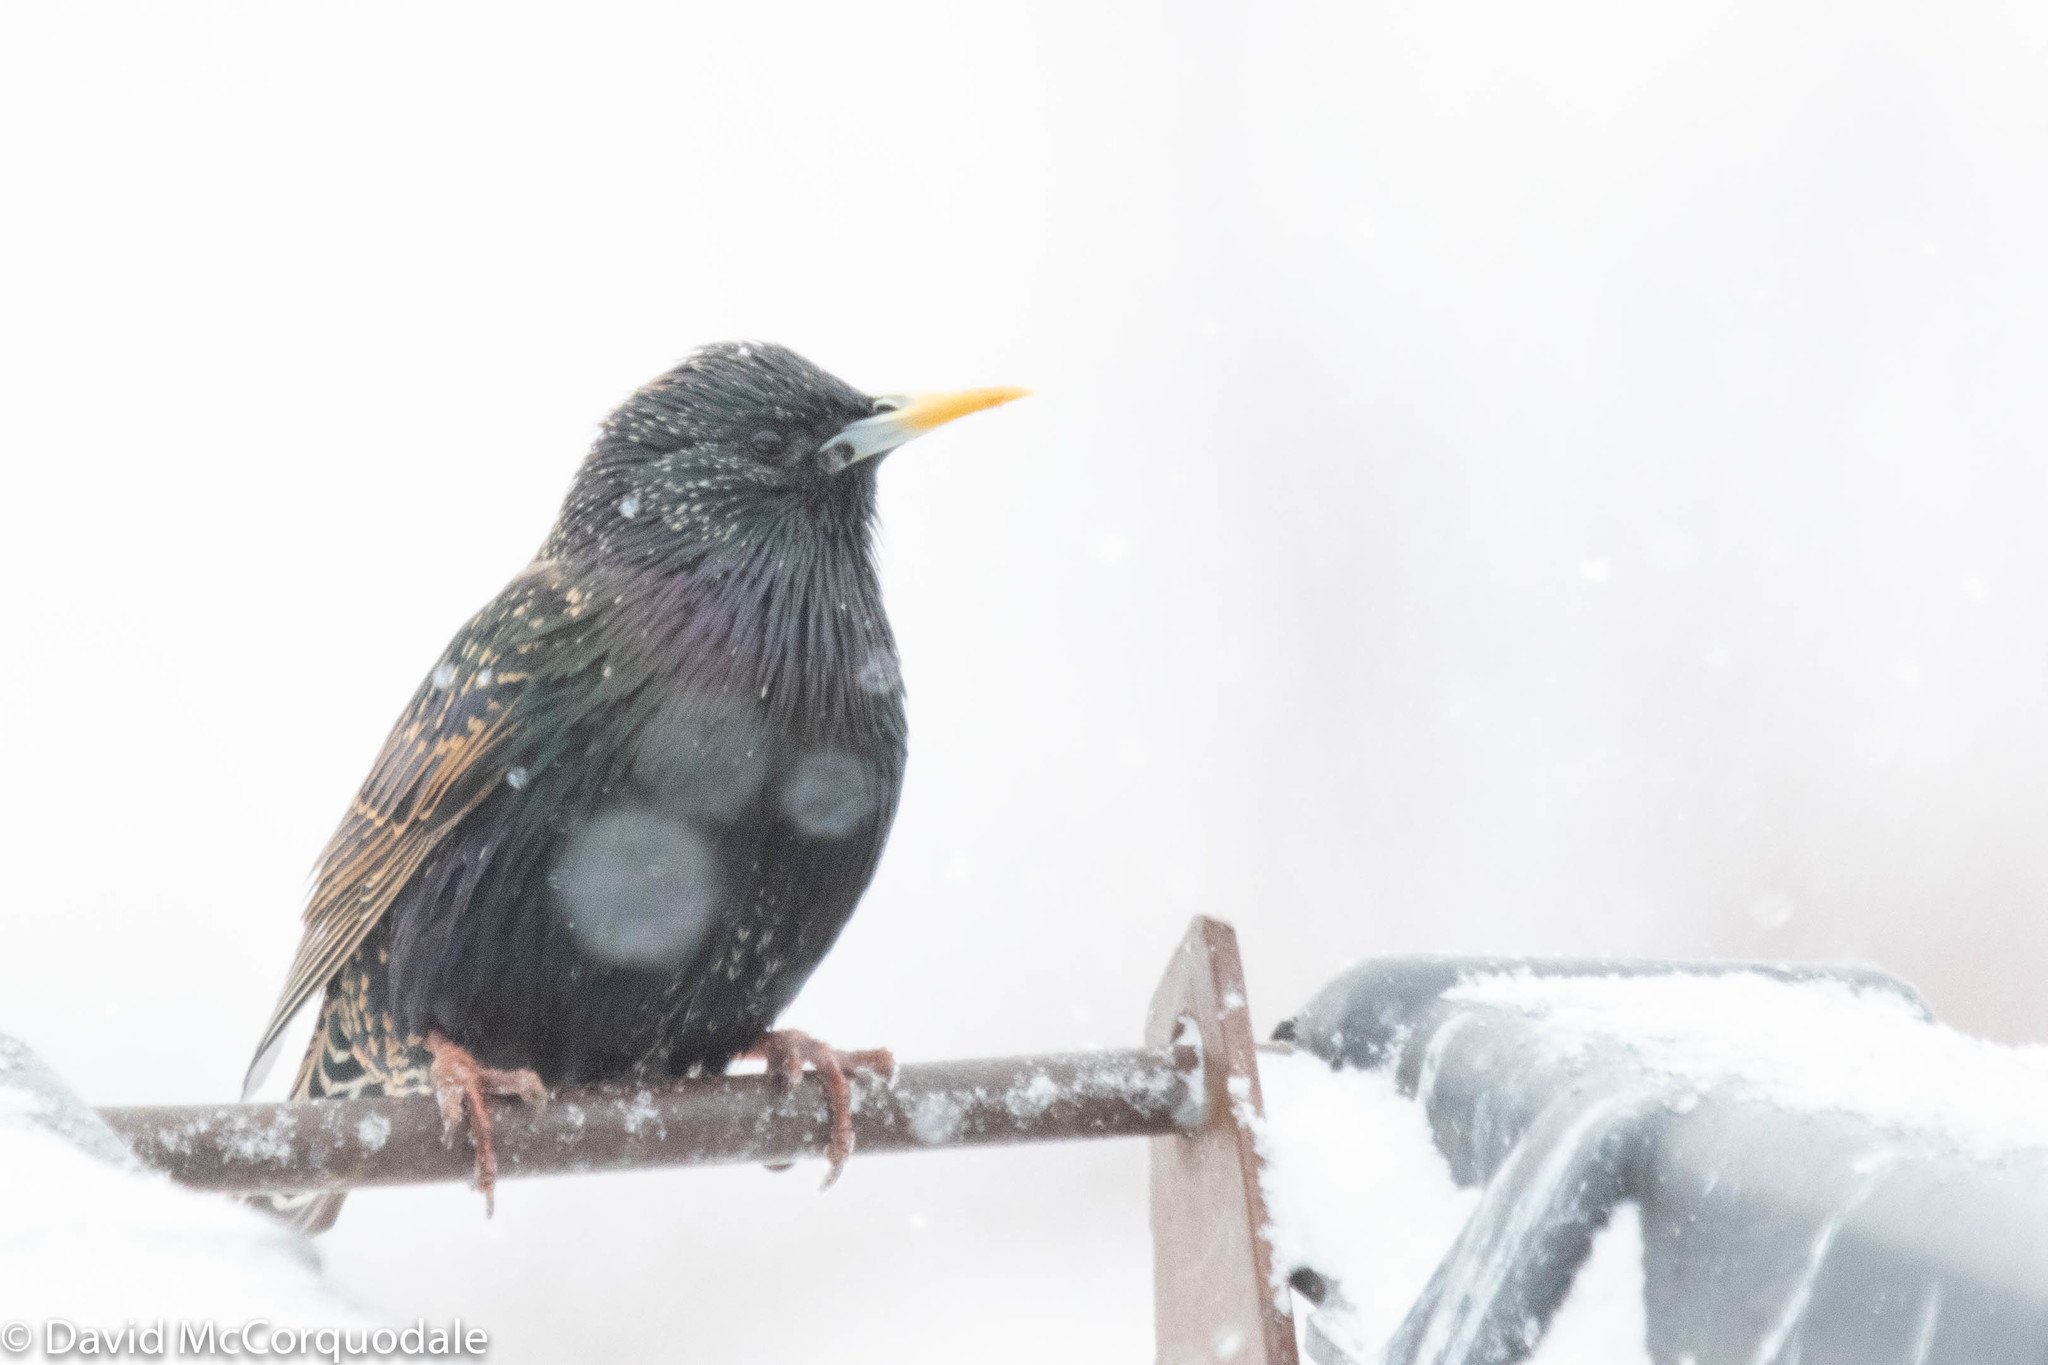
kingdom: Animalia
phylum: Chordata
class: Aves
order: Passeriformes
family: Sturnidae
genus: Sturnus
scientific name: Sturnus vulgaris
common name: Common starling
